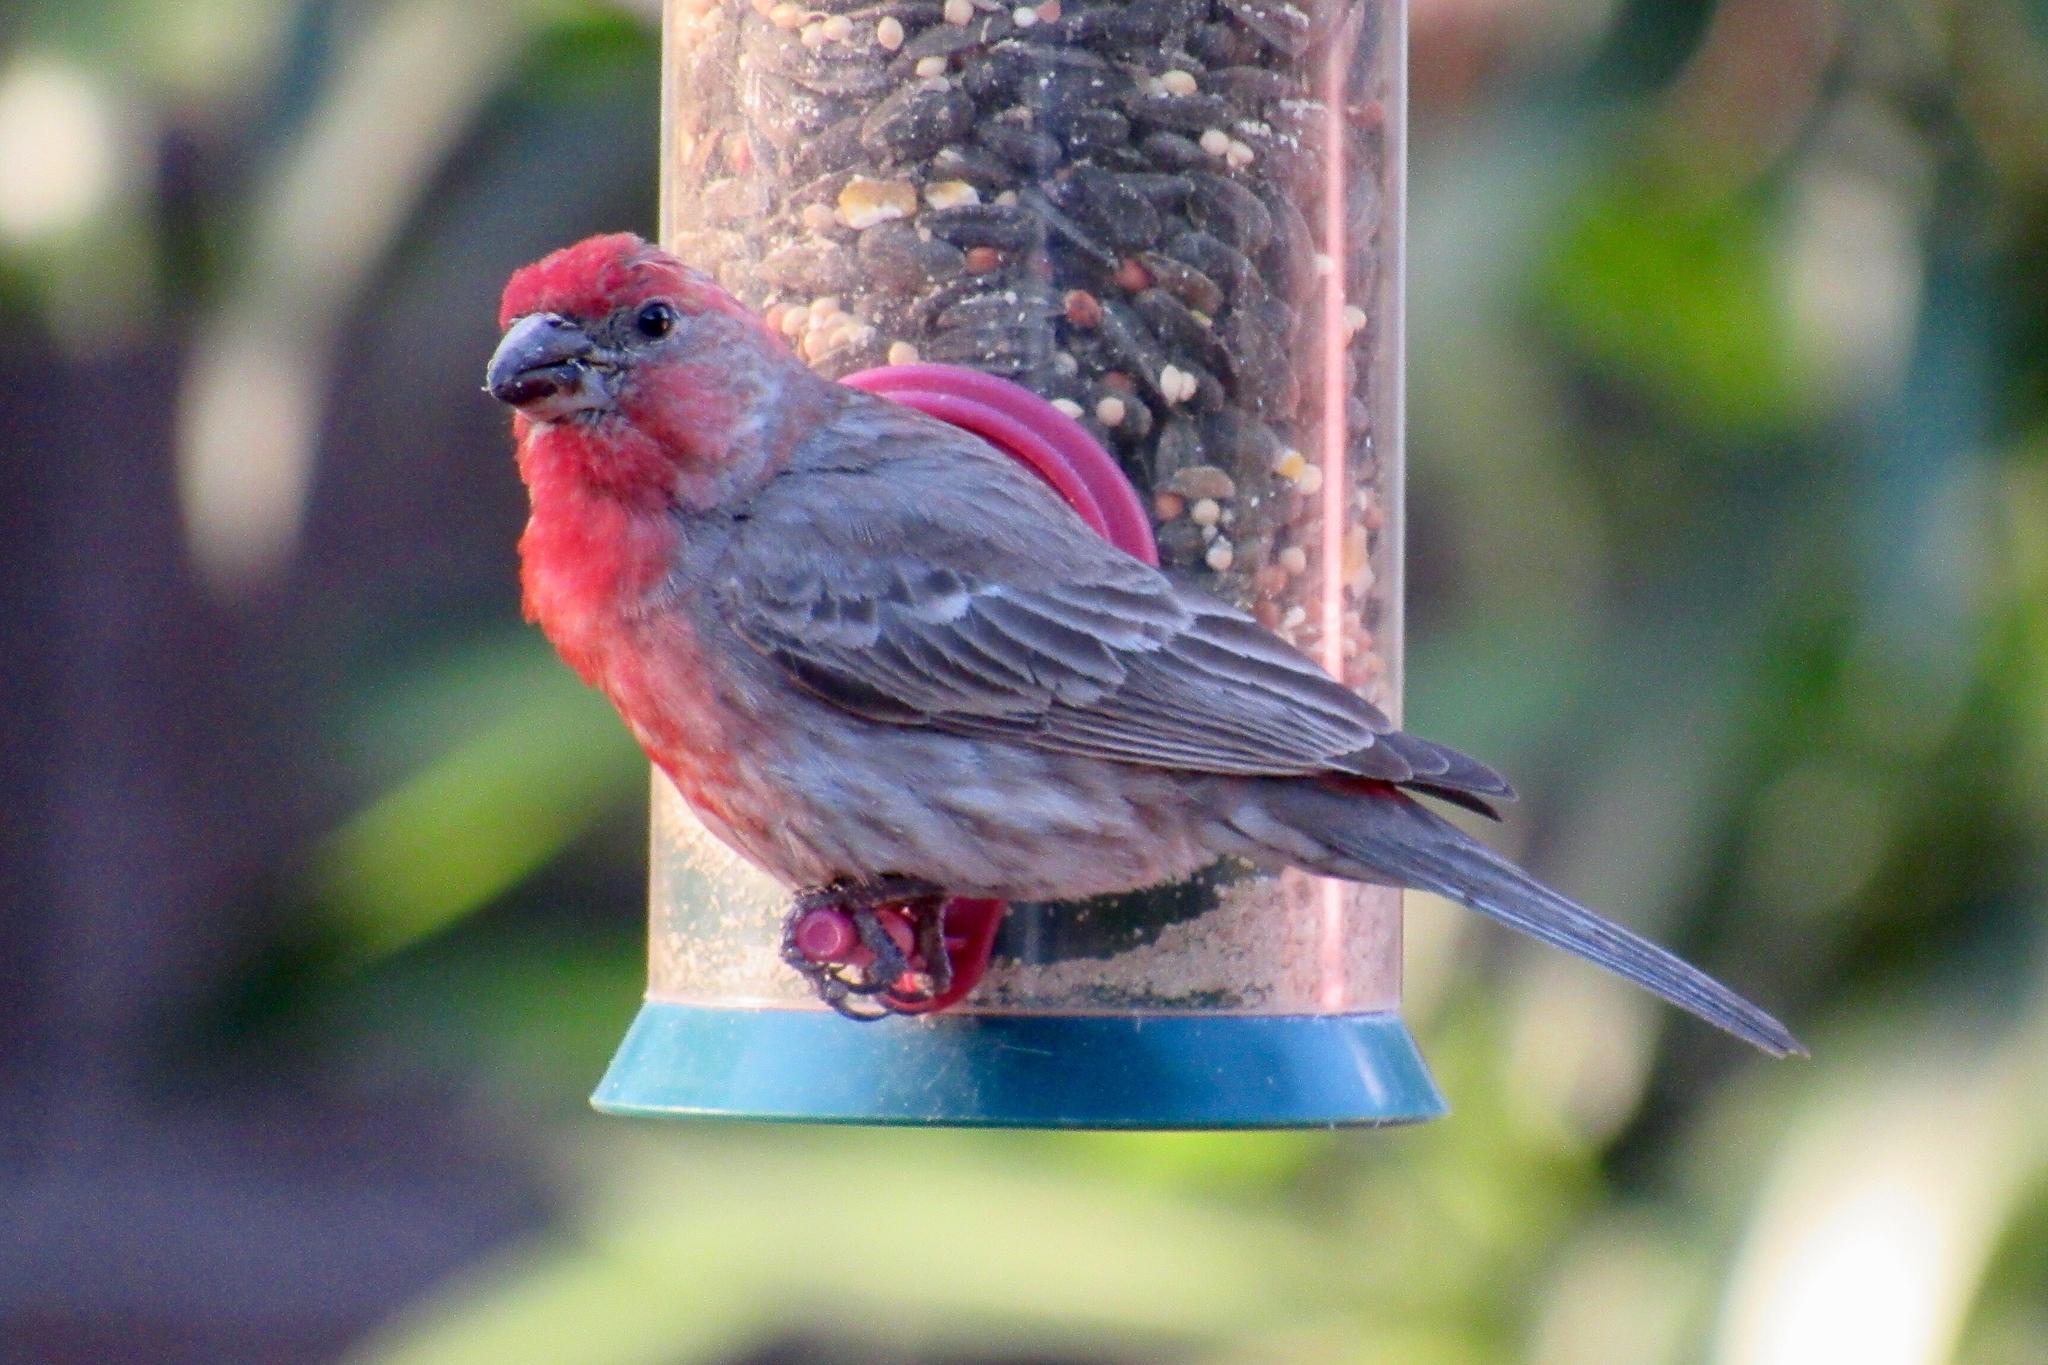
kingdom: Animalia
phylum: Chordata
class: Aves
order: Passeriformes
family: Fringillidae
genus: Haemorhous
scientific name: Haemorhous mexicanus
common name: House finch
